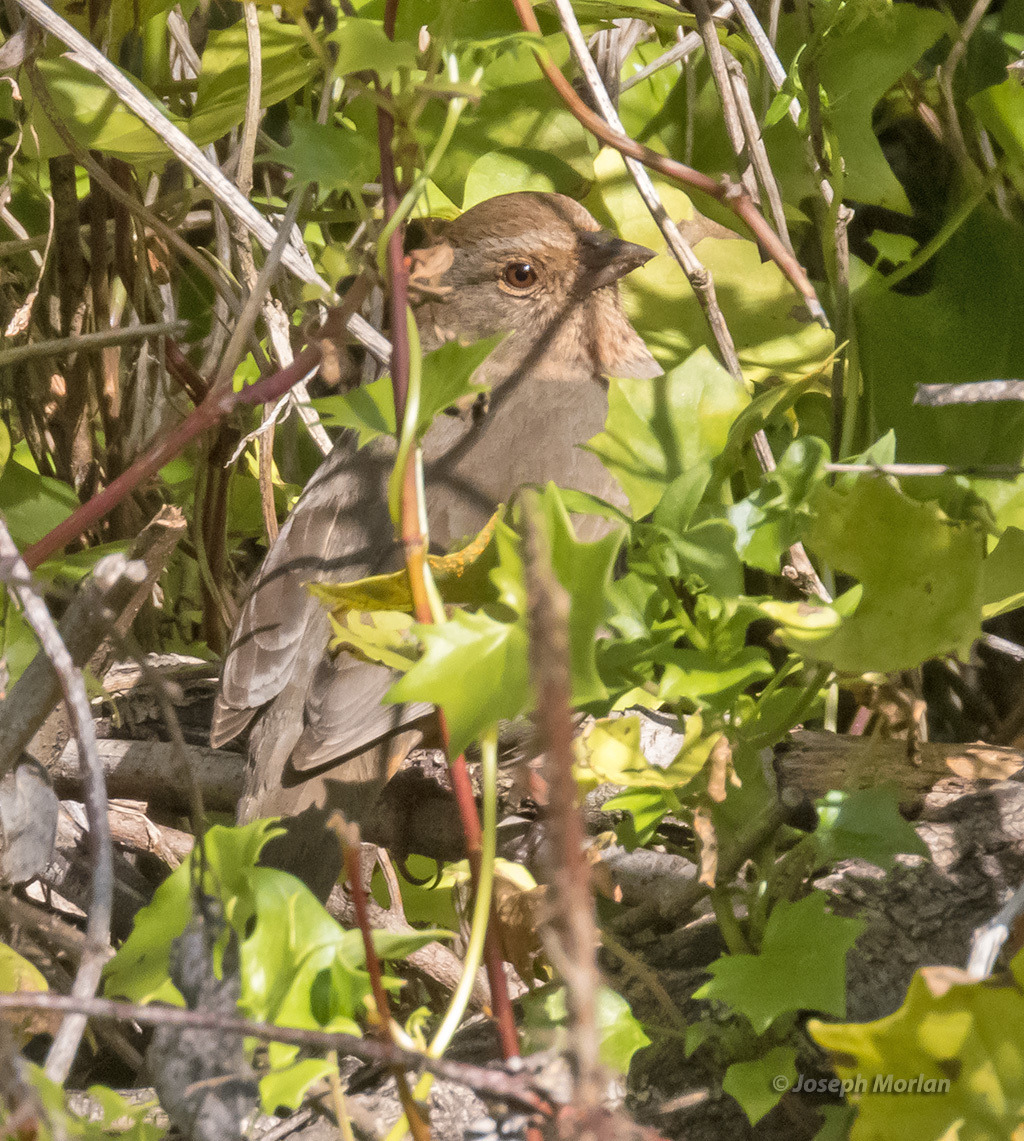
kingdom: Animalia
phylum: Chordata
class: Aves
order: Passeriformes
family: Passerellidae
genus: Melozone
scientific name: Melozone crissalis
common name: California towhee
